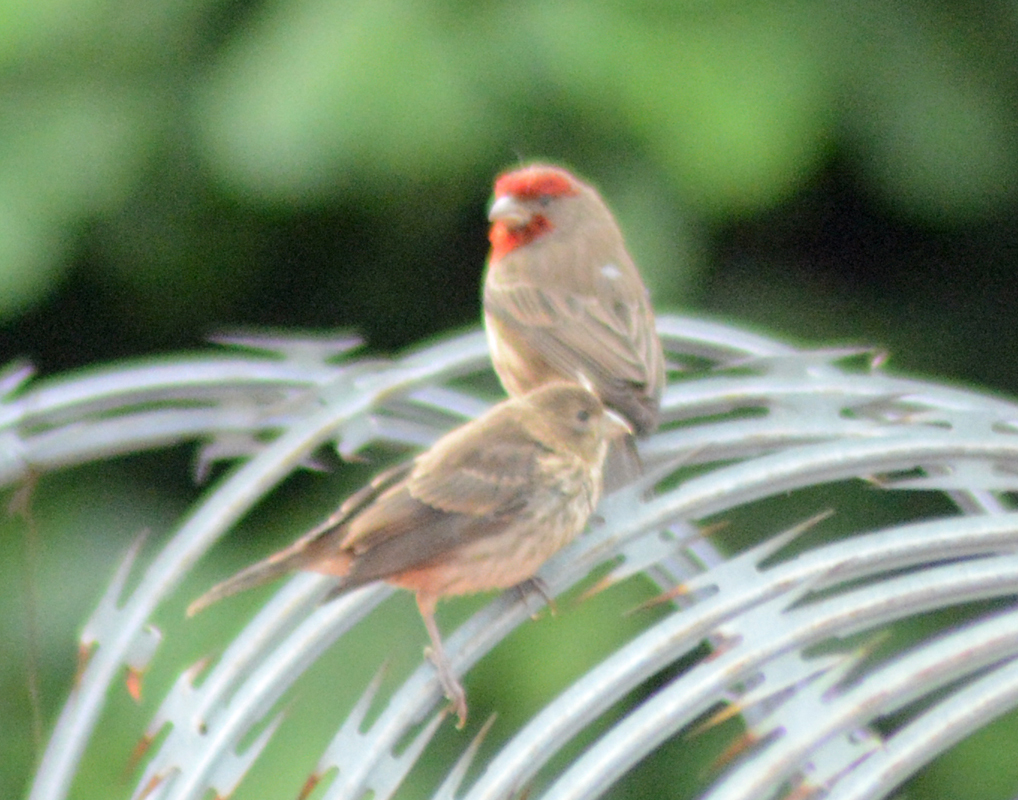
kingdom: Animalia
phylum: Chordata
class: Aves
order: Passeriformes
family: Fringillidae
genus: Haemorhous
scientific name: Haemorhous mexicanus
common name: House finch
